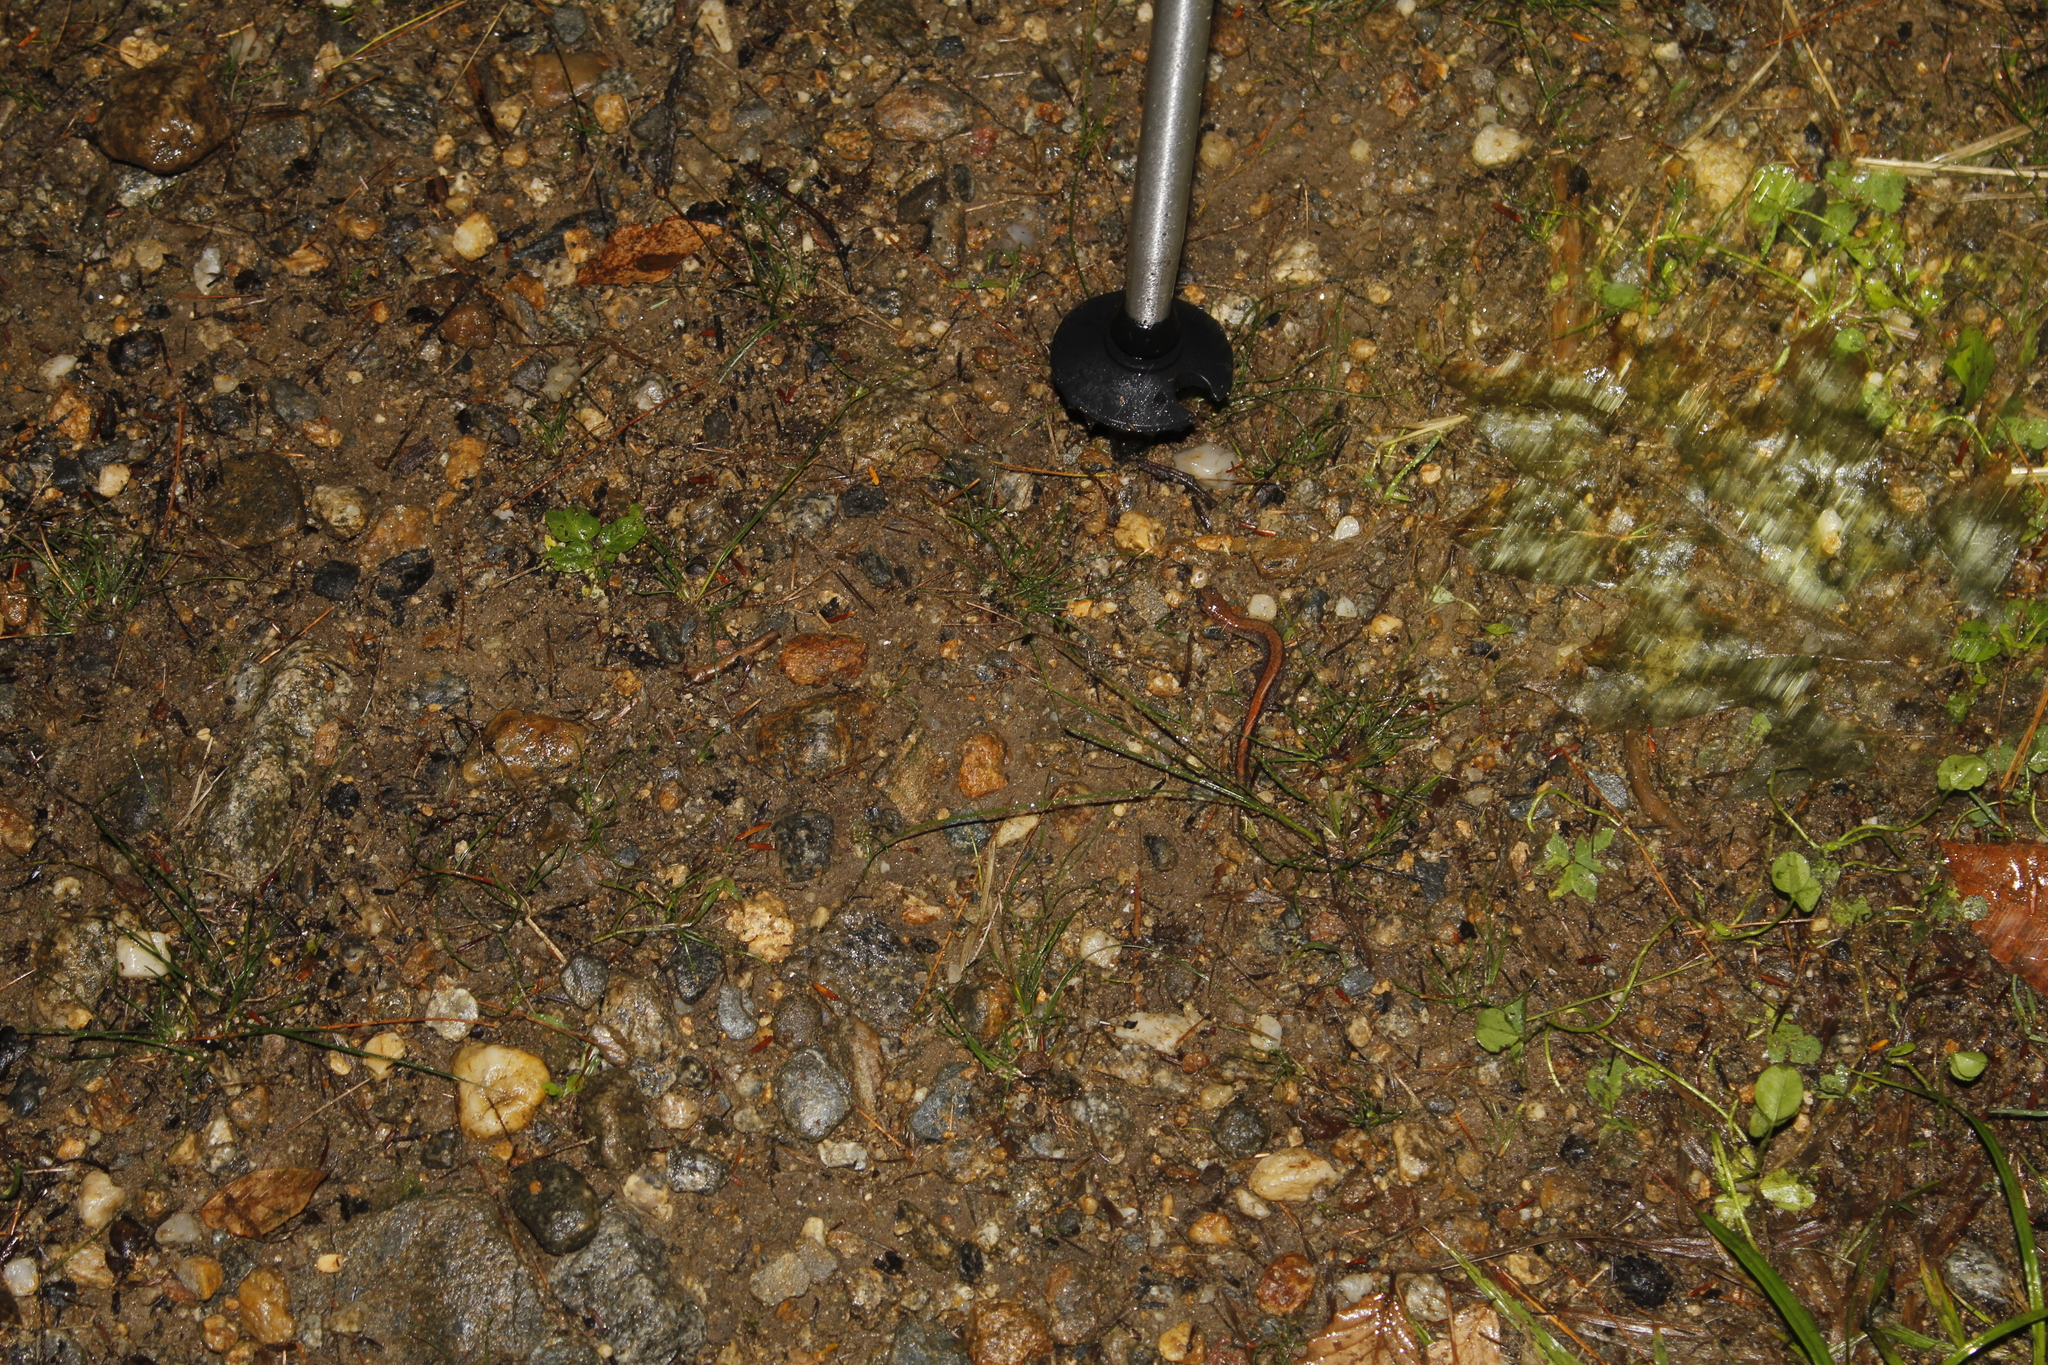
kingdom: Animalia
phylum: Chordata
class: Amphibia
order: Caudata
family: Plethodontidae
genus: Plethodon
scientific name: Plethodon cinereus
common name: Redback salamander
